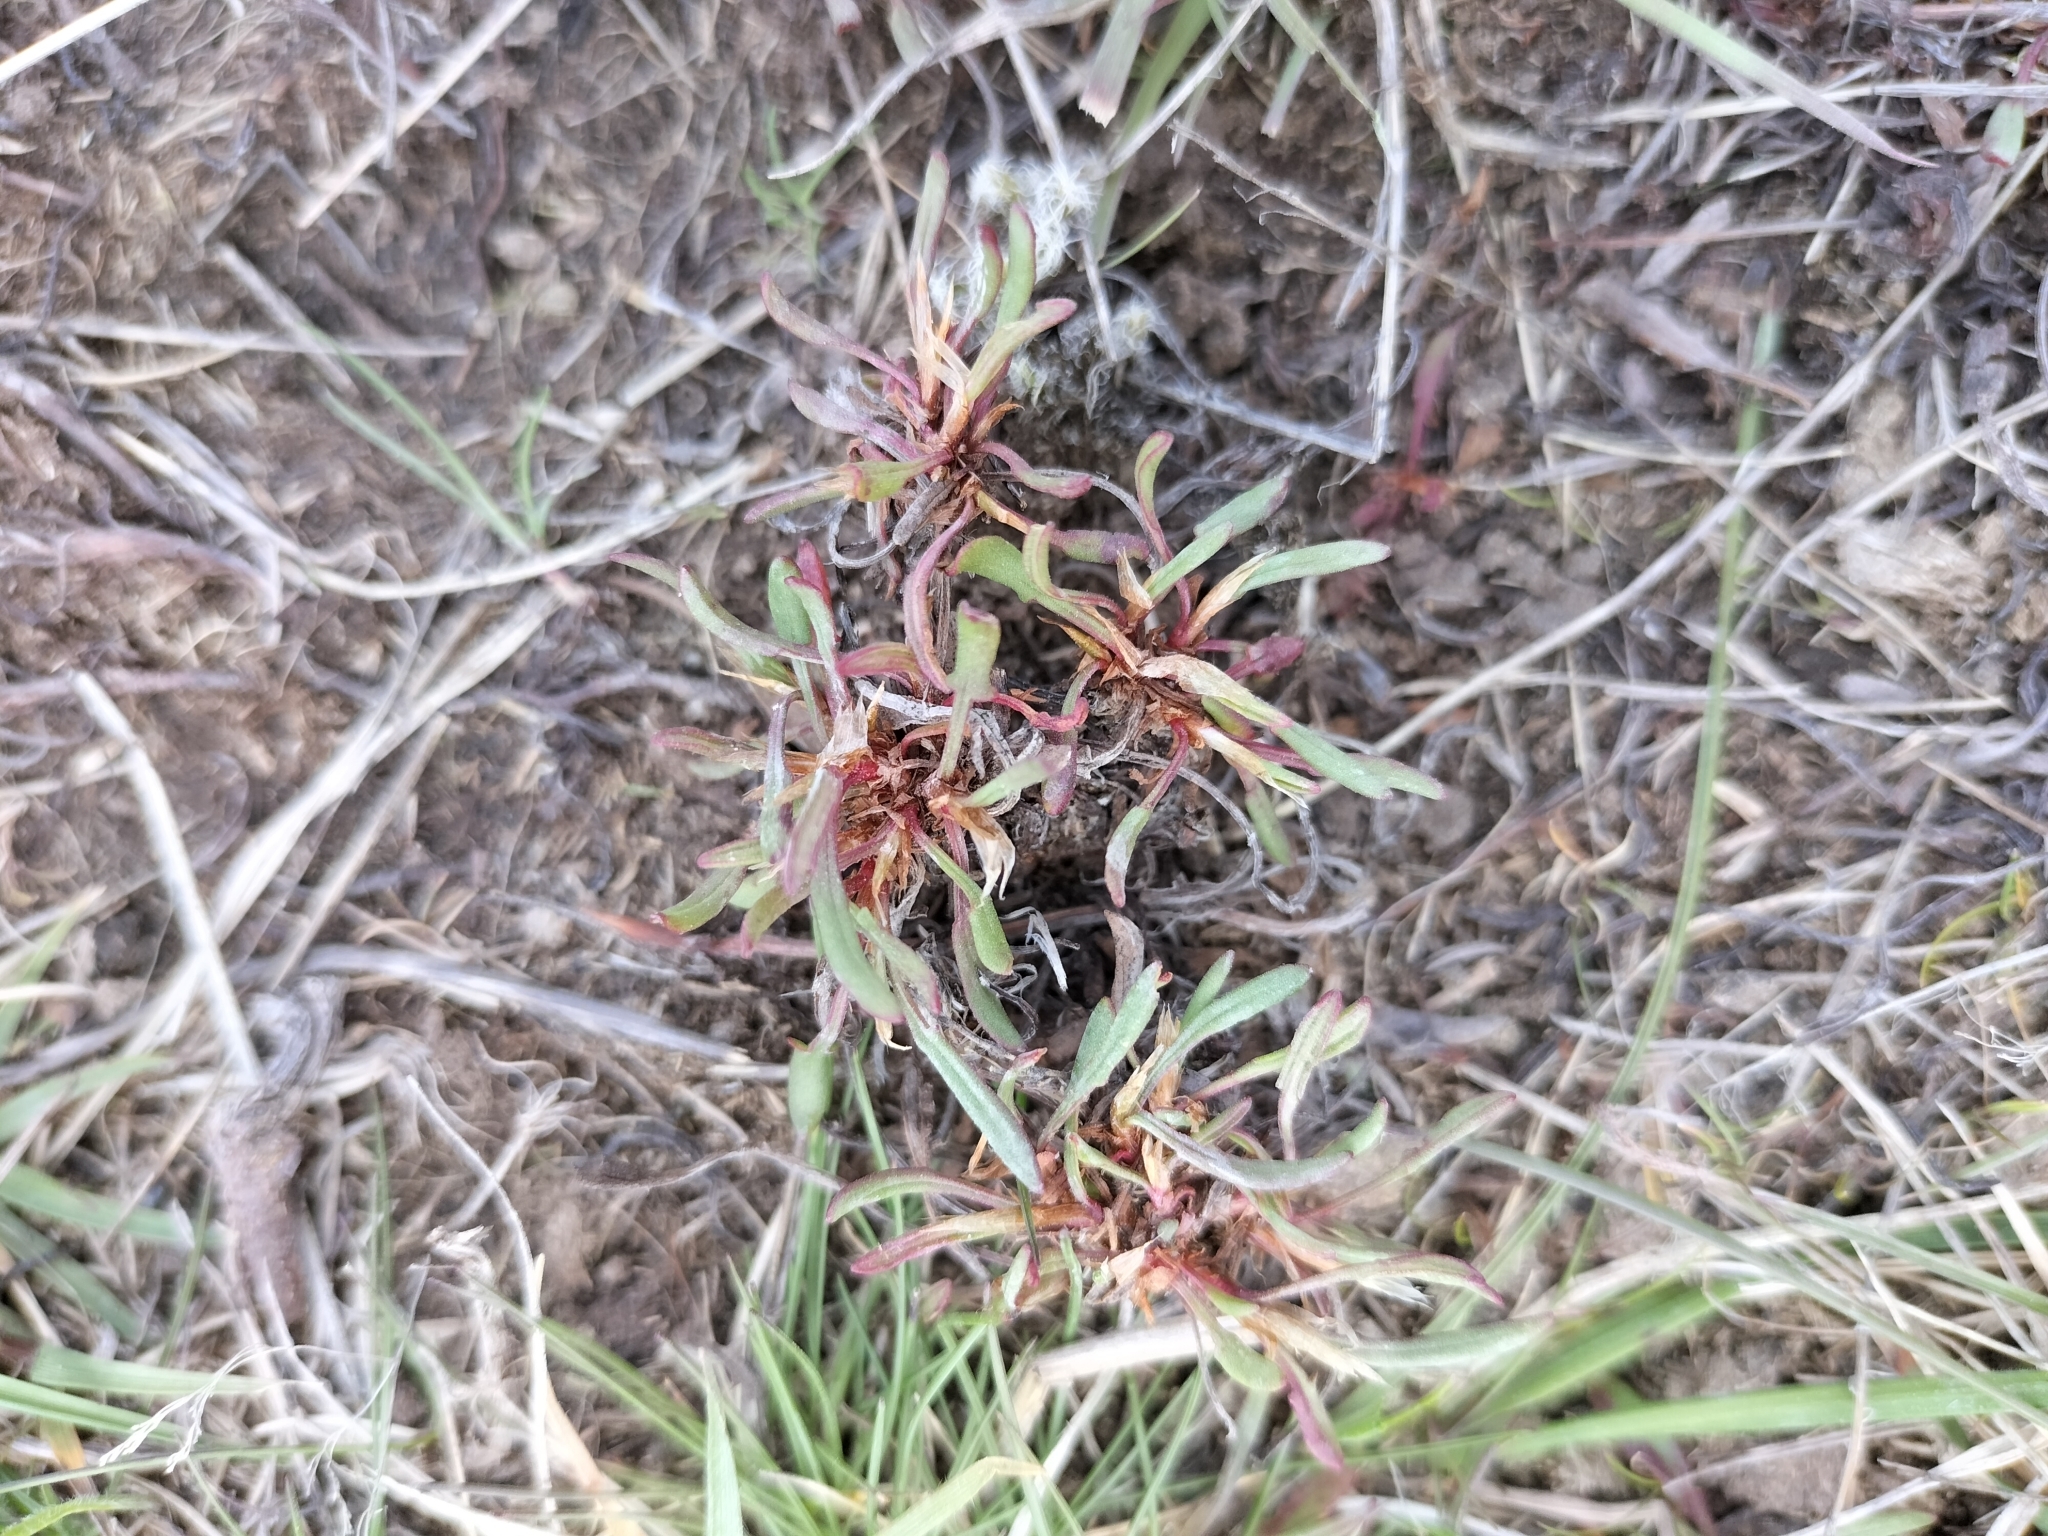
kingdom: Plantae
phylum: Tracheophyta
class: Magnoliopsida
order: Caryophyllales
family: Polygonaceae
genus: Rumex
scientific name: Rumex acetosella
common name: Common sheep sorrel
